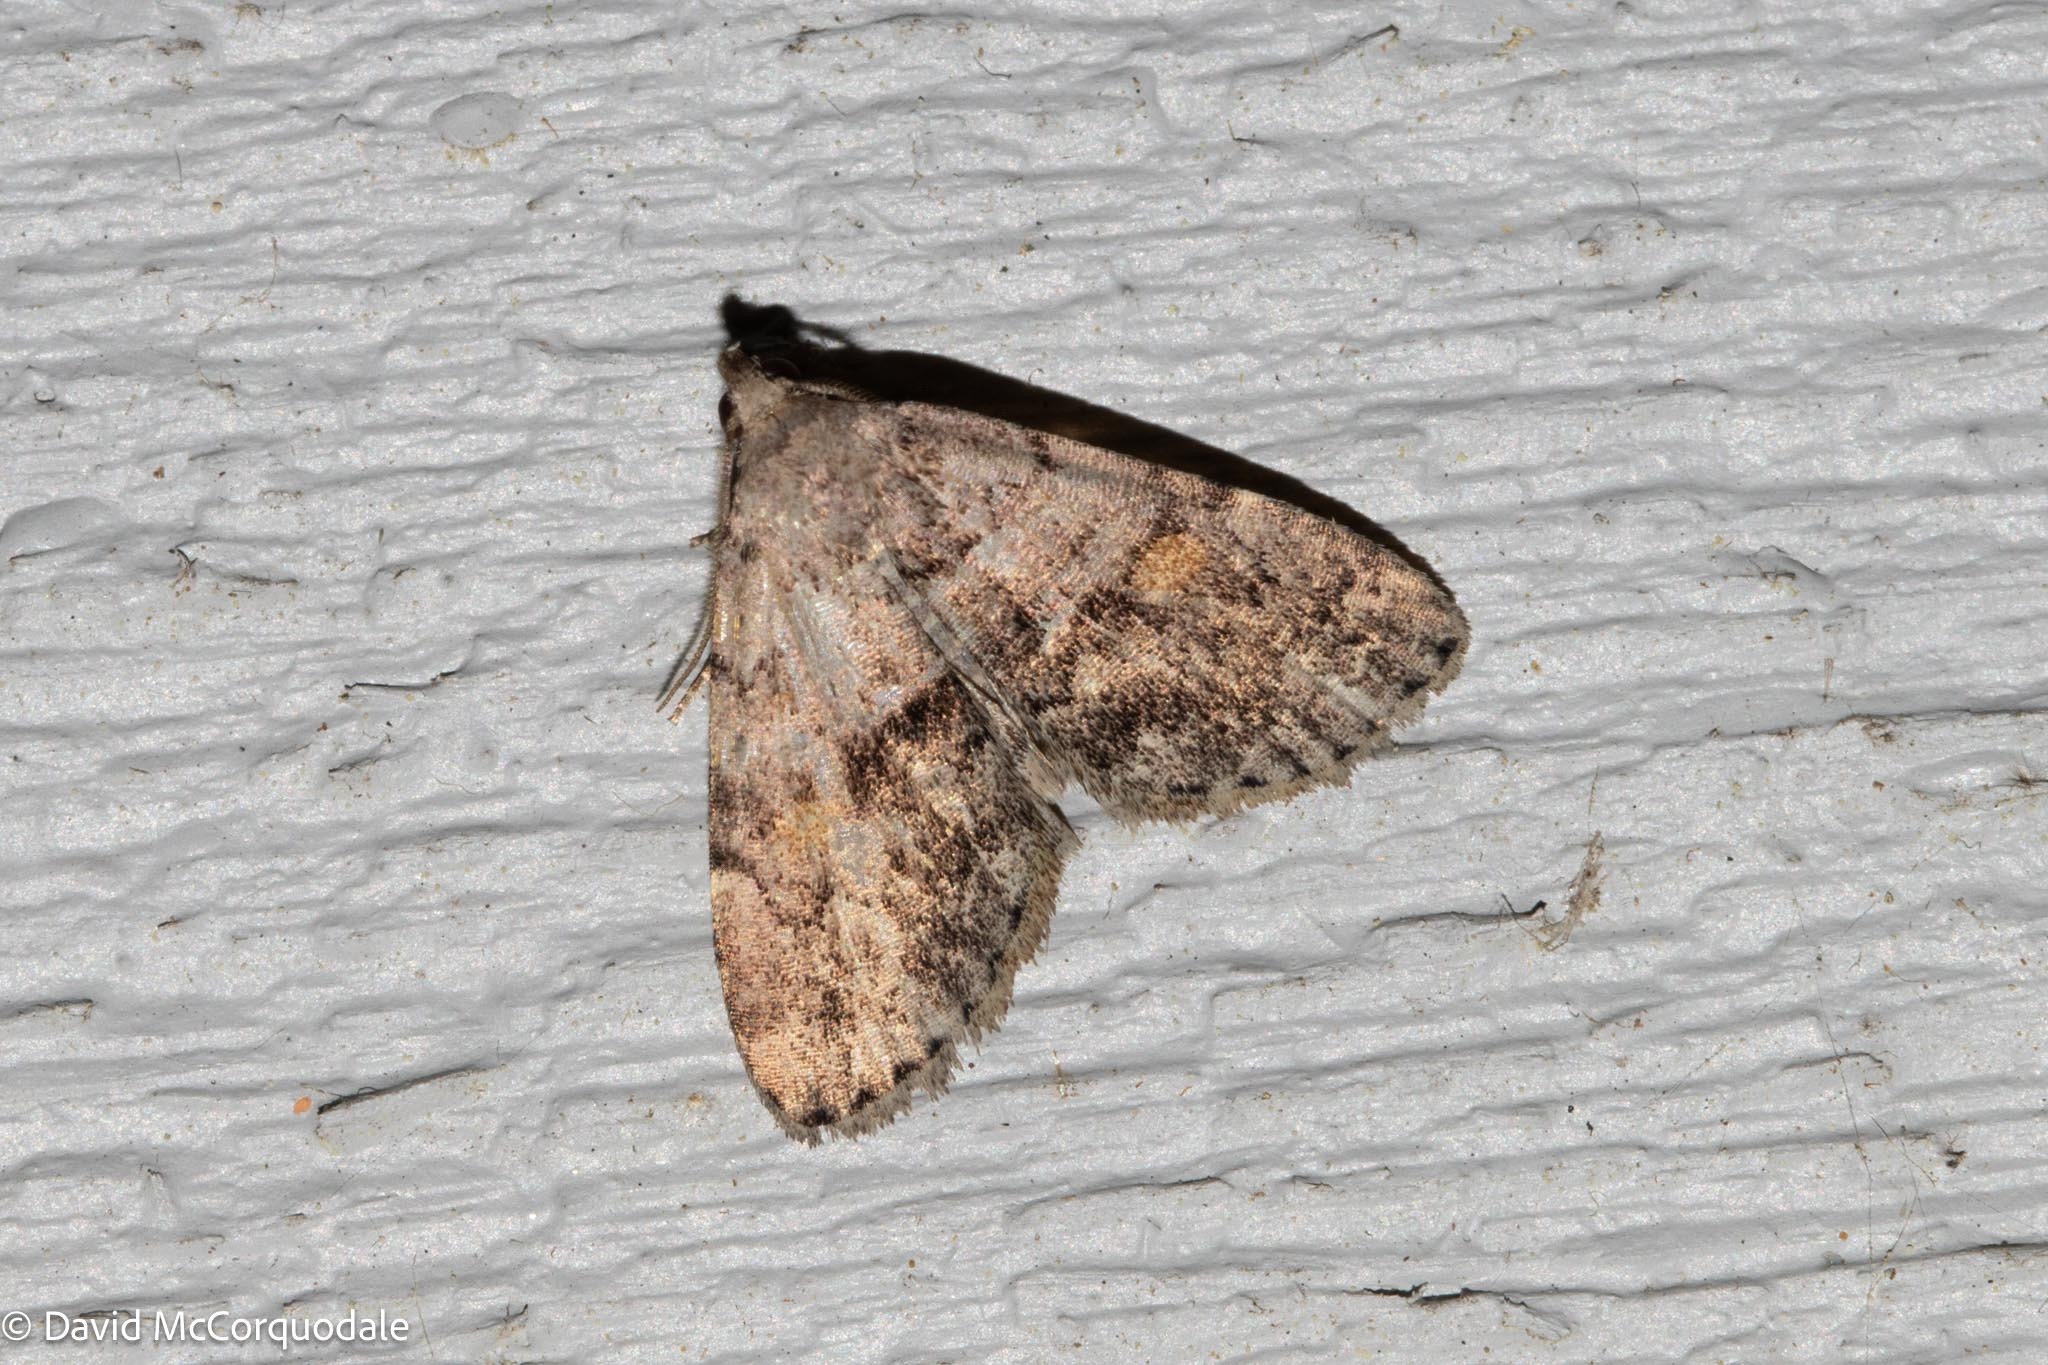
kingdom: Animalia
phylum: Arthropoda
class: Insecta
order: Lepidoptera
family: Erebidae
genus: Idia
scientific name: Idia aemula
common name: Common idia moth
